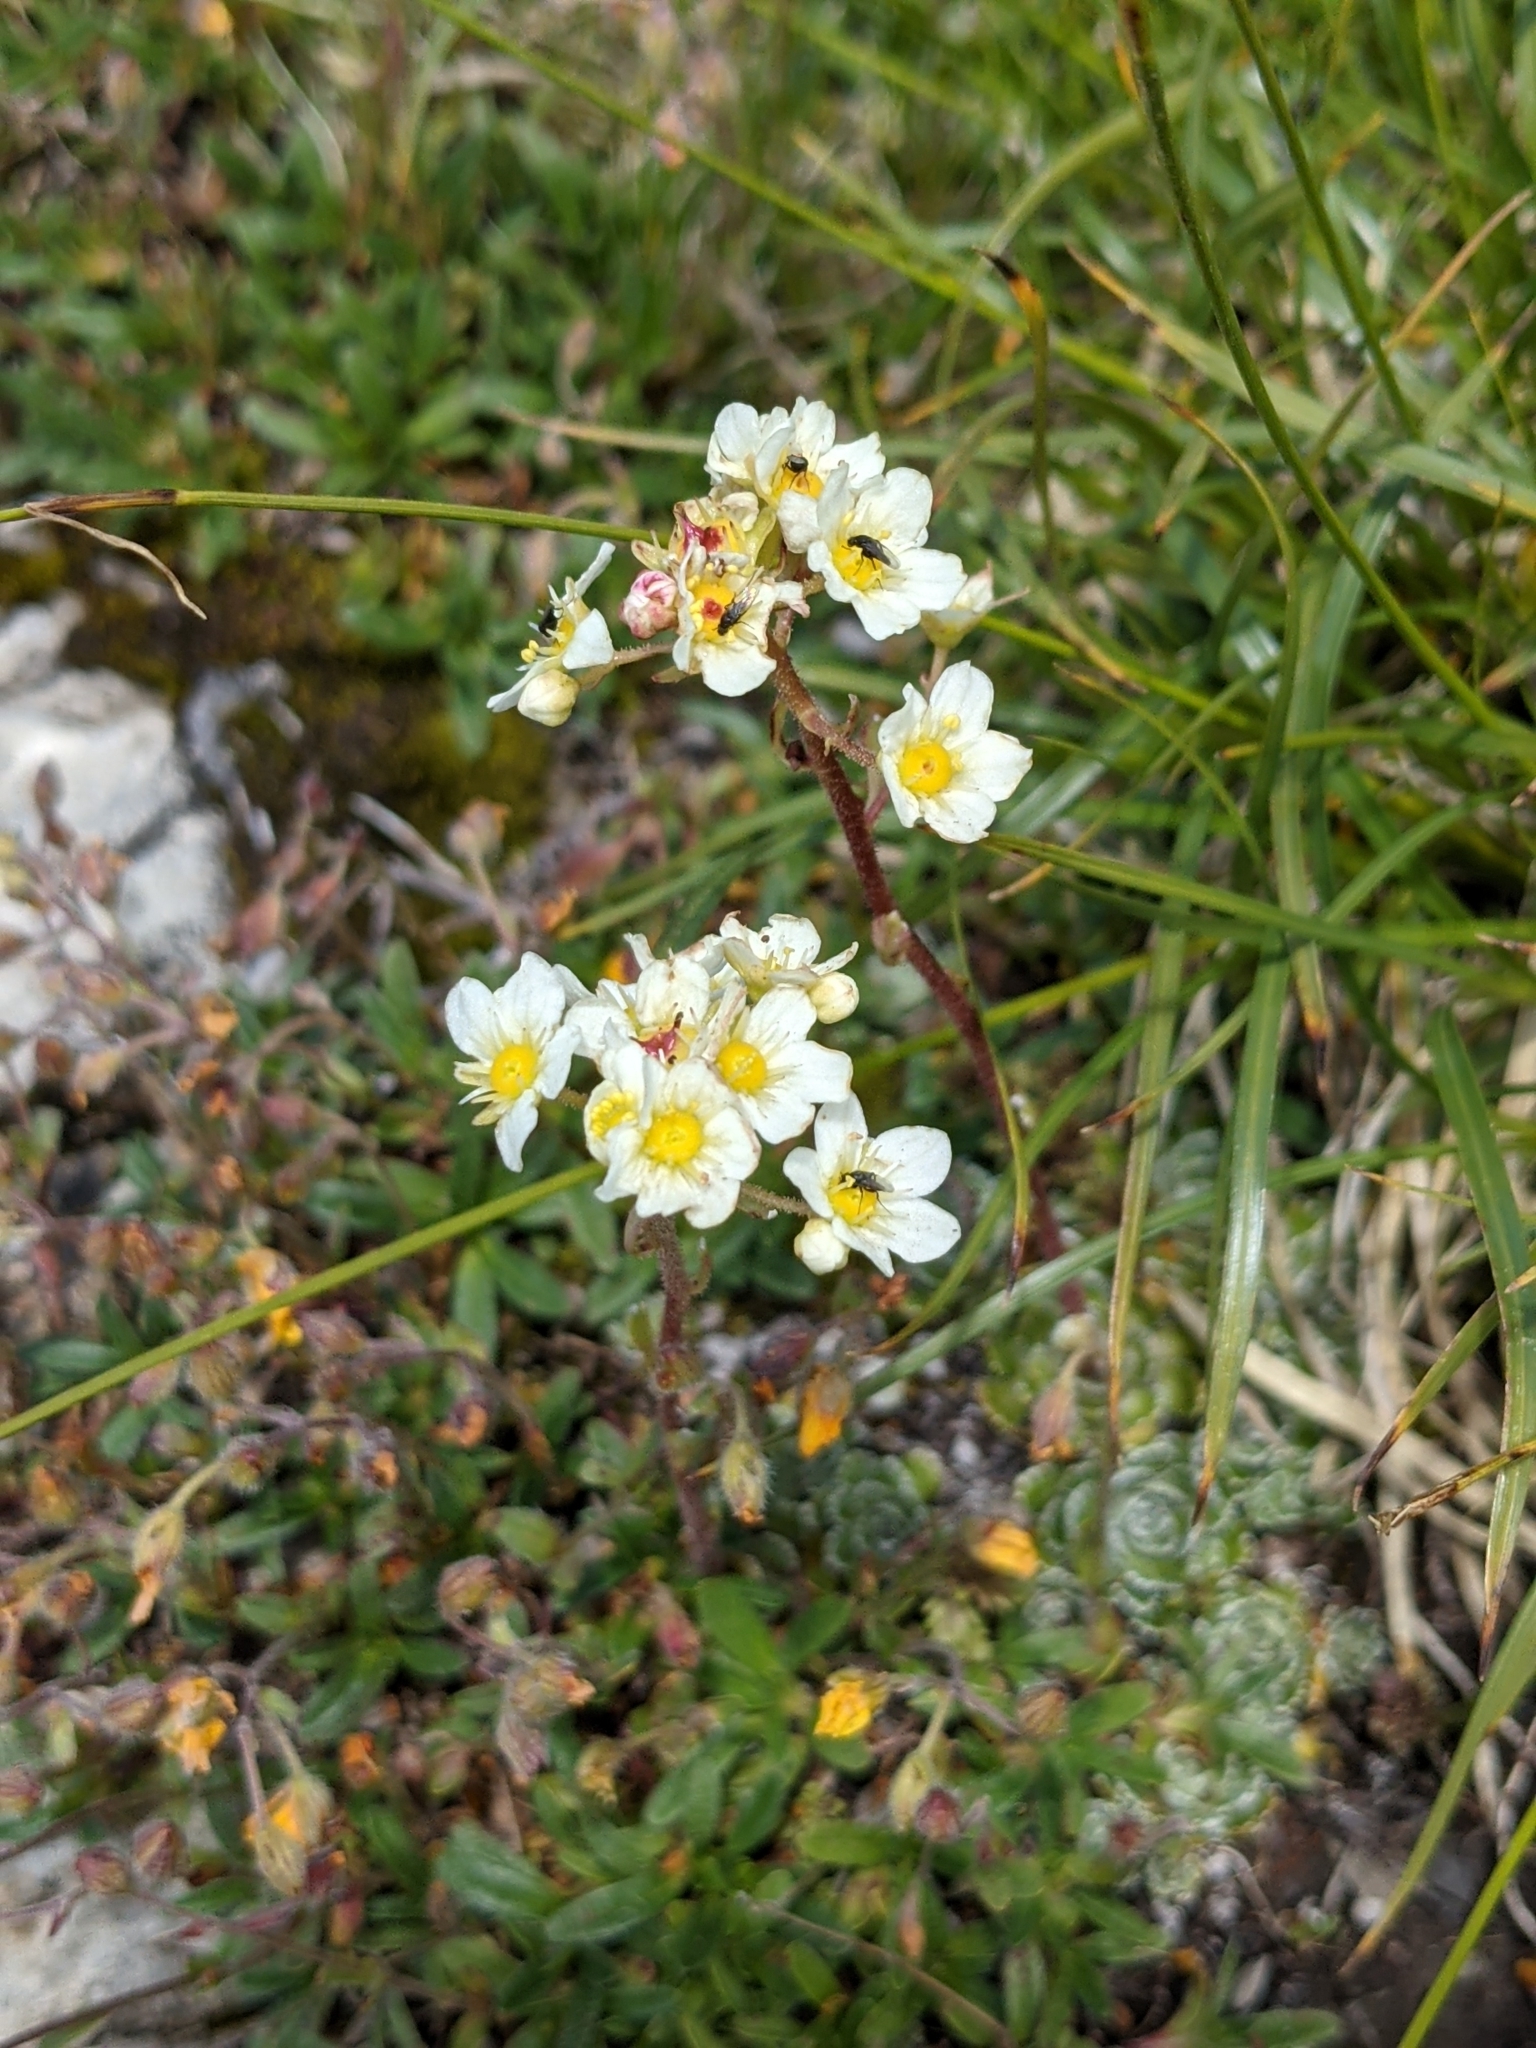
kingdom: Plantae
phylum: Tracheophyta
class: Magnoliopsida
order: Saxifragales
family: Saxifragaceae
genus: Saxifraga
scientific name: Saxifraga paniculata
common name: Livelong saxifrage
